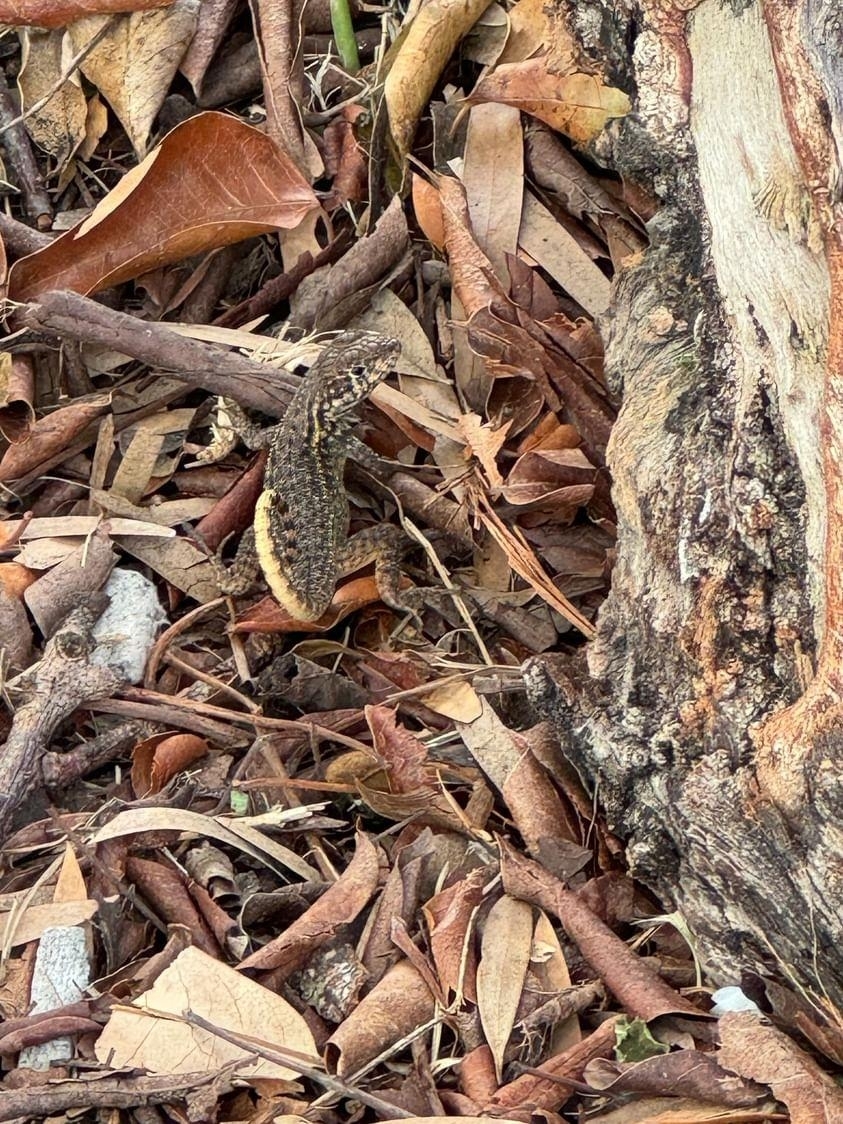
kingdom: Animalia
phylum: Chordata
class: Squamata
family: Leiocephalidae
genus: Leiocephalus
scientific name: Leiocephalus carinatus
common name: Northern curly-tailed lizard
